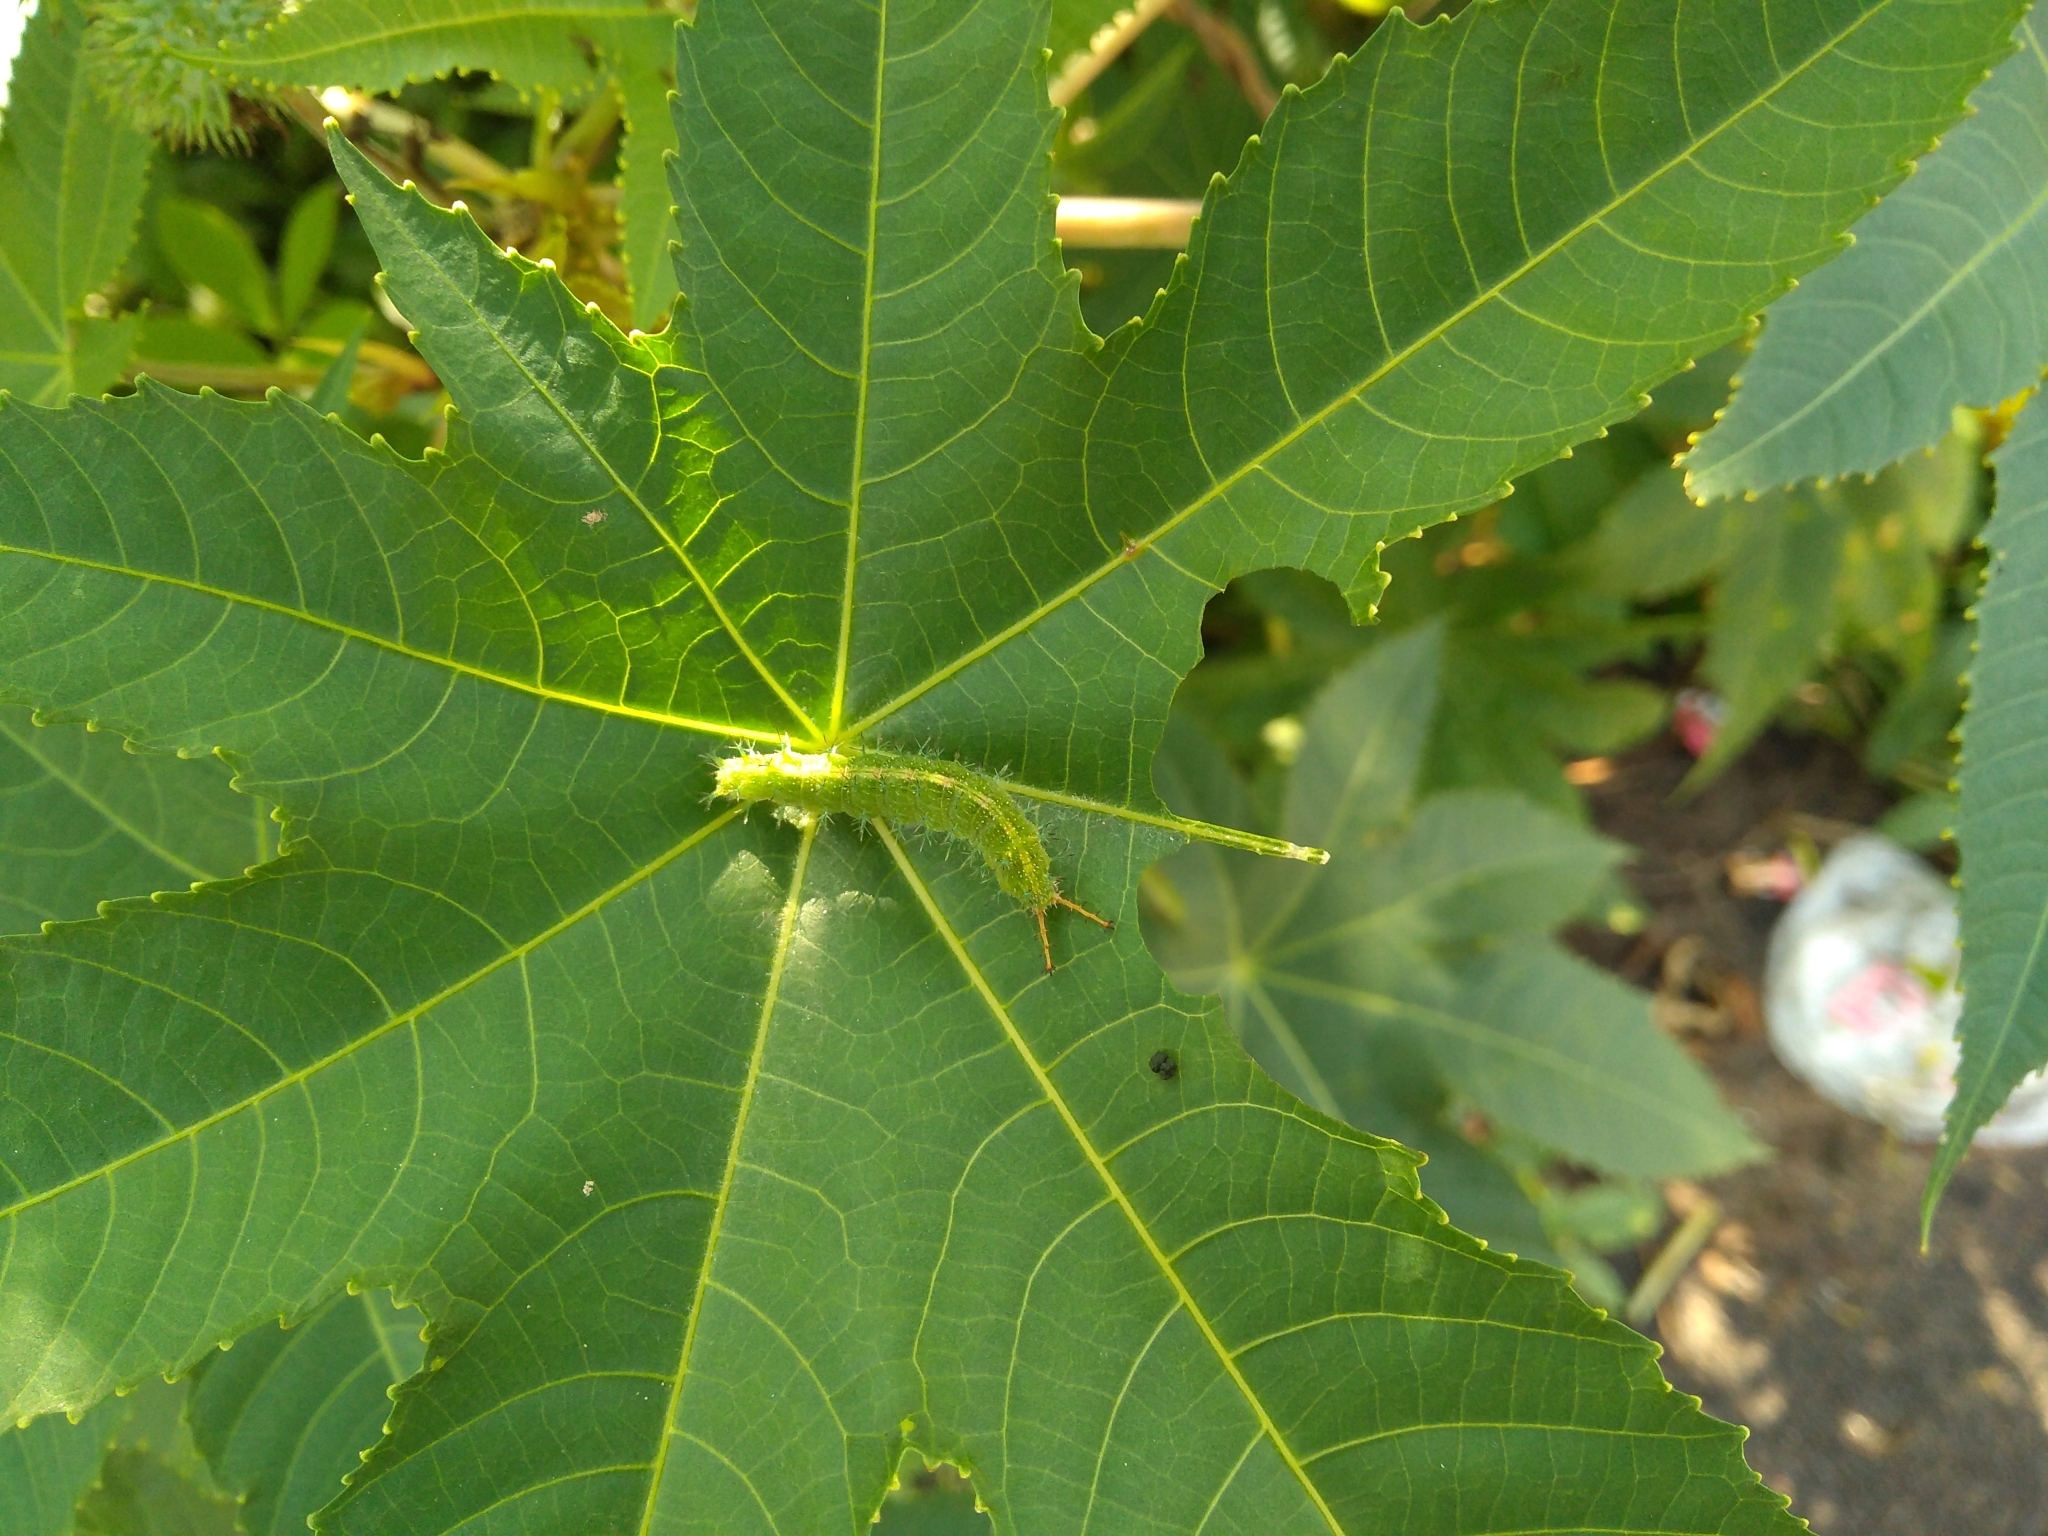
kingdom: Animalia
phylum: Arthropoda
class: Insecta
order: Lepidoptera
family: Nymphalidae
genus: Ariadne
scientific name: Ariadne merione
